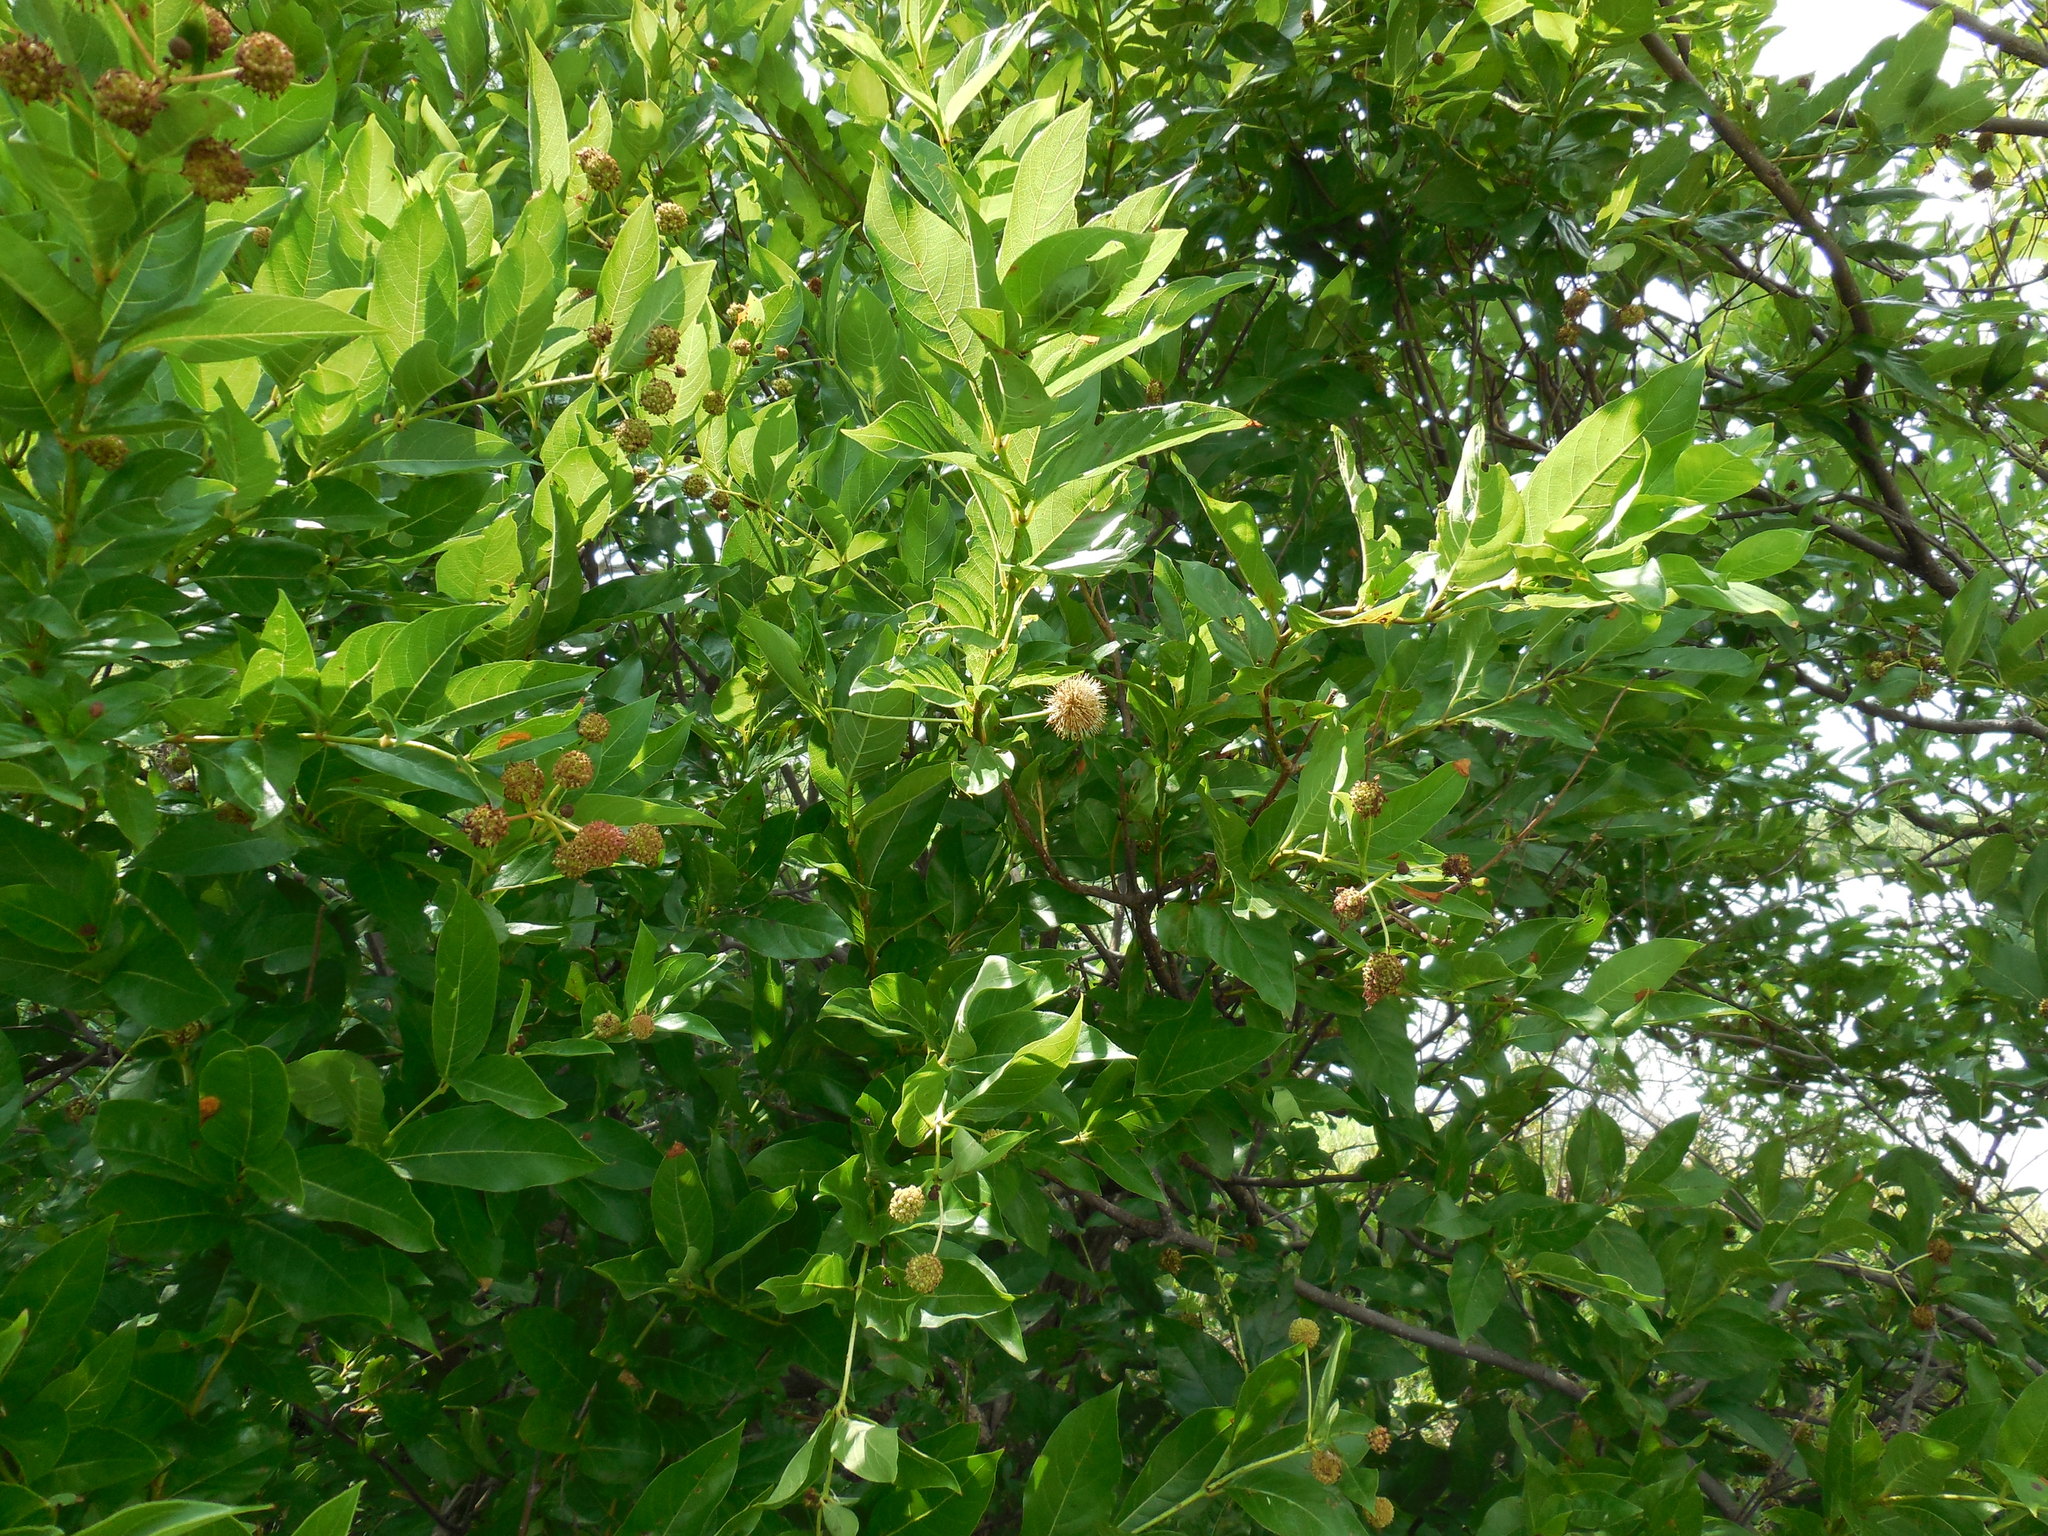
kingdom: Plantae
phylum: Tracheophyta
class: Magnoliopsida
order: Gentianales
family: Rubiaceae
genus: Cephalanthus
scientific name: Cephalanthus occidentalis
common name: Button-willow
